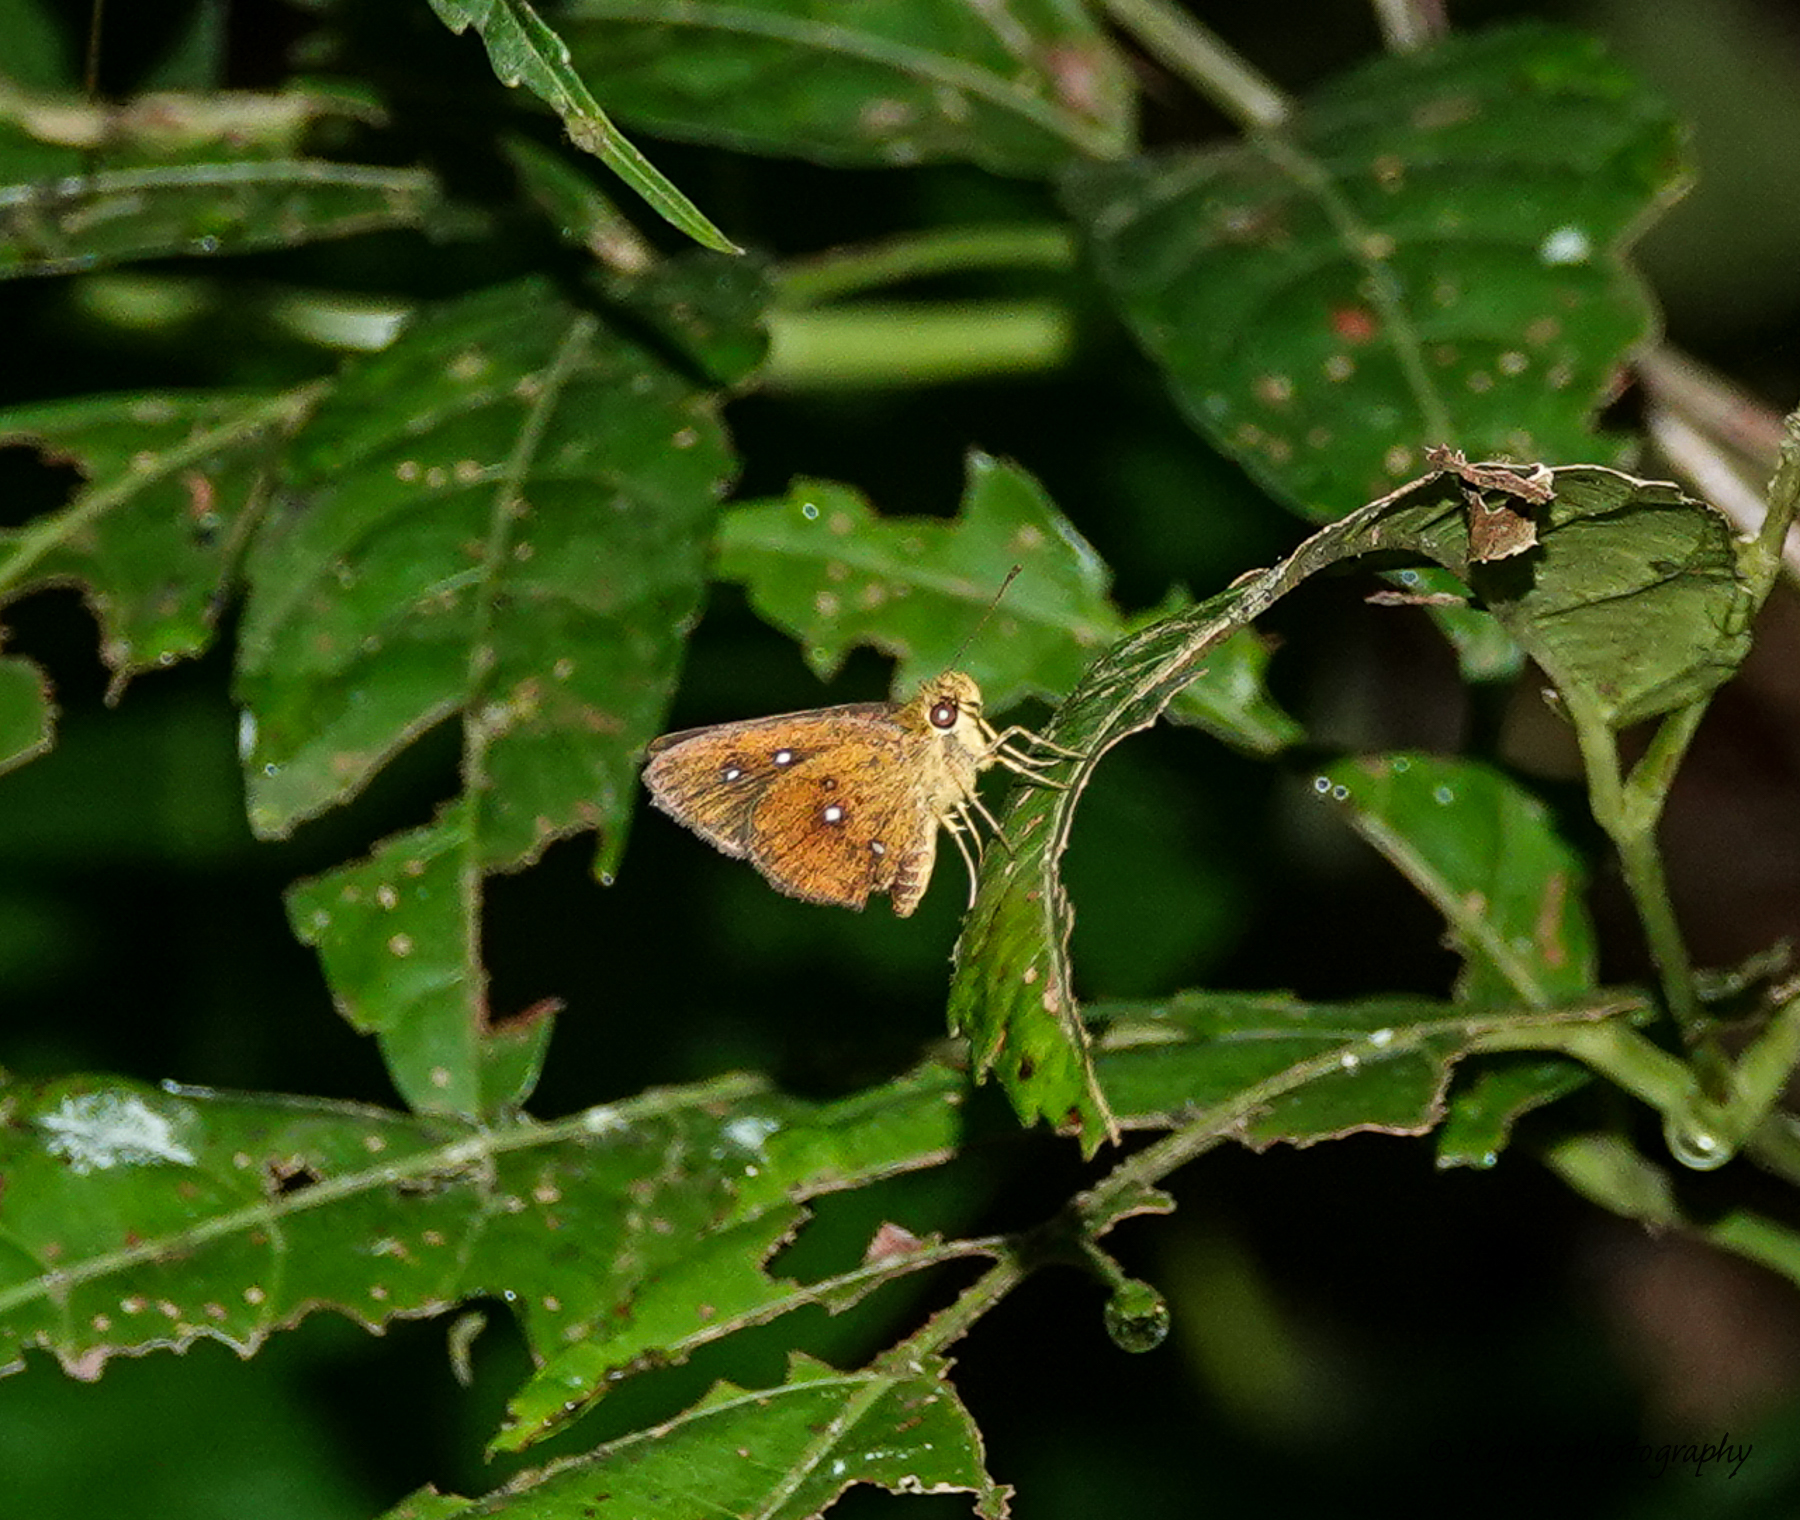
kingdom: Animalia
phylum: Arthropoda
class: Insecta
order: Lepidoptera
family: Hesperiidae
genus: Iambrix
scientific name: Iambrix salsala
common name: Chestnut bob
